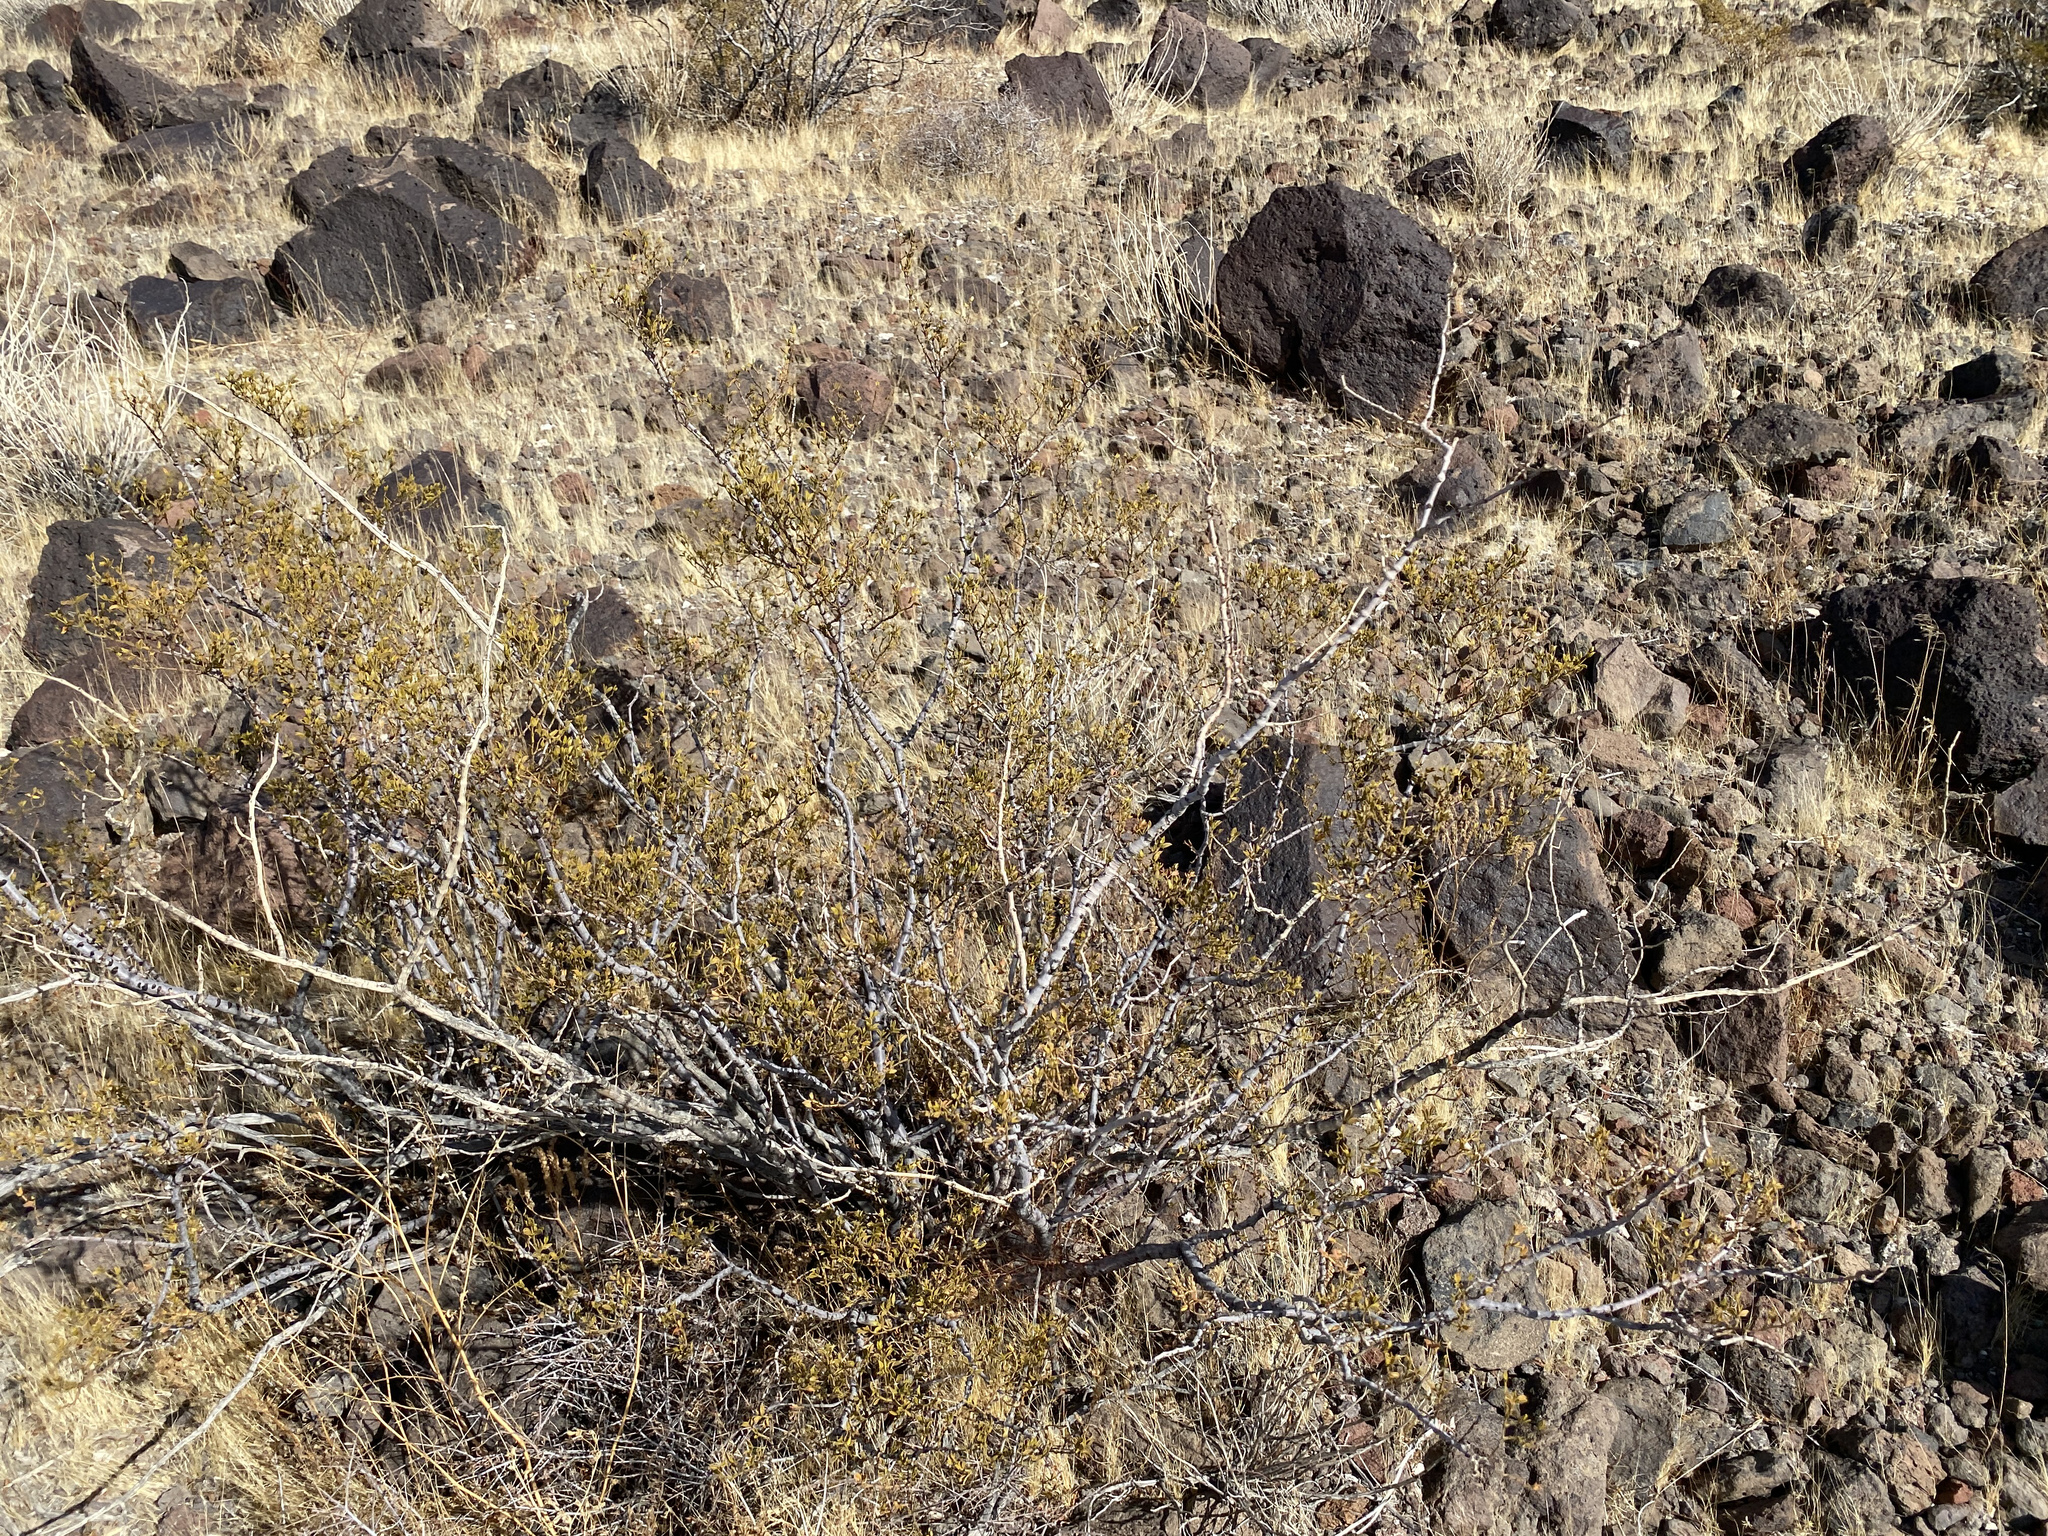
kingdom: Plantae
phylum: Tracheophyta
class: Magnoliopsida
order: Zygophyllales
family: Zygophyllaceae
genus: Larrea
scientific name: Larrea tridentata
